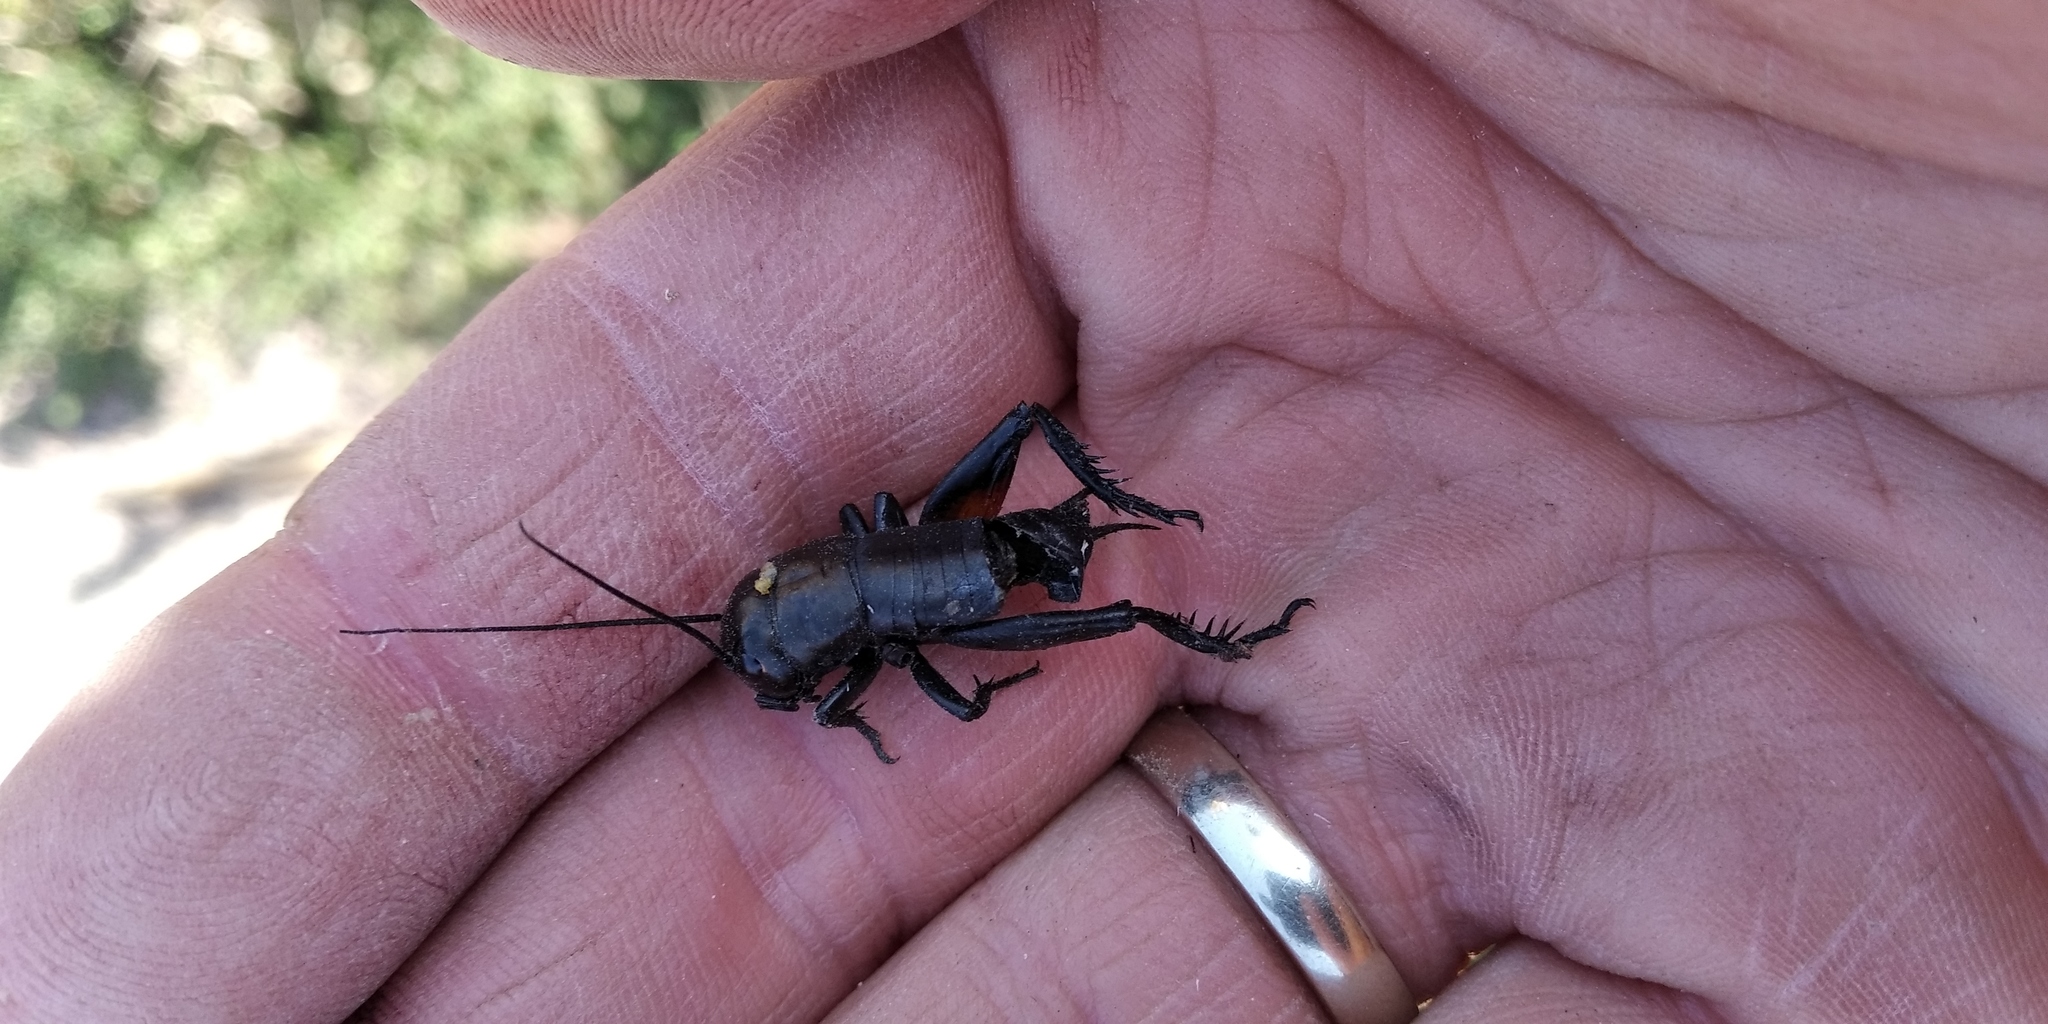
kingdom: Animalia
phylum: Arthropoda
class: Insecta
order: Orthoptera
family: Gryllidae
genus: Gryllus
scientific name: Gryllus campestris
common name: Field cricket
